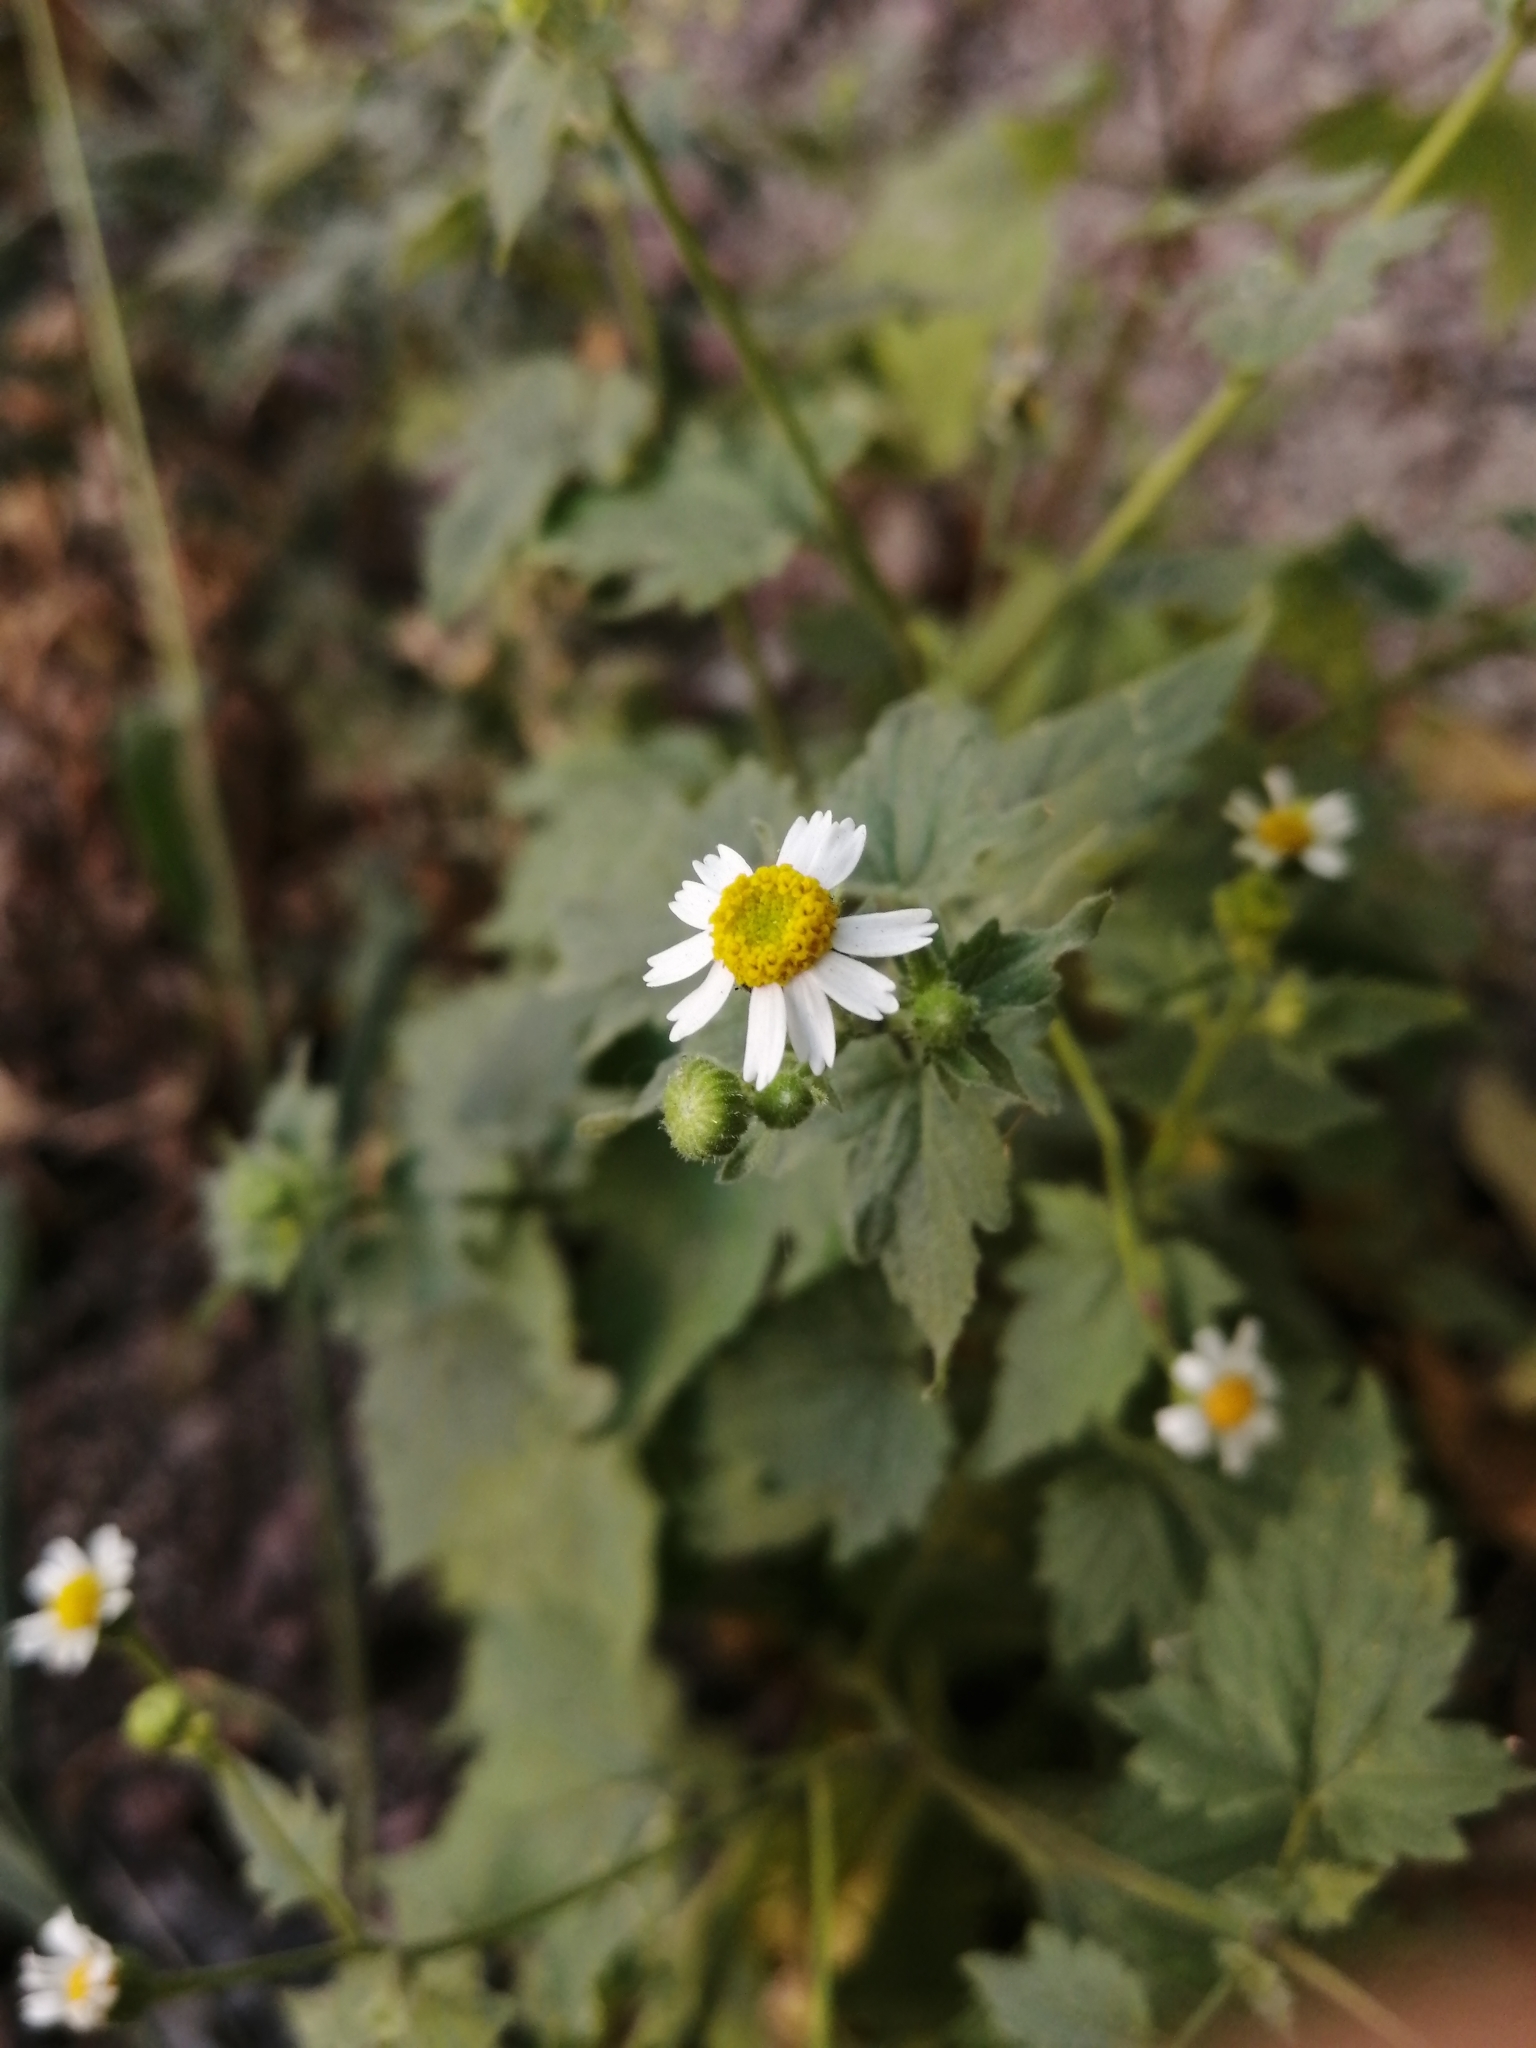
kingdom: Plantae
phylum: Tracheophyta
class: Magnoliopsida
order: Asterales
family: Asteraceae
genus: Galinsogeopsis
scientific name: Galinsogeopsis spilanthoides
